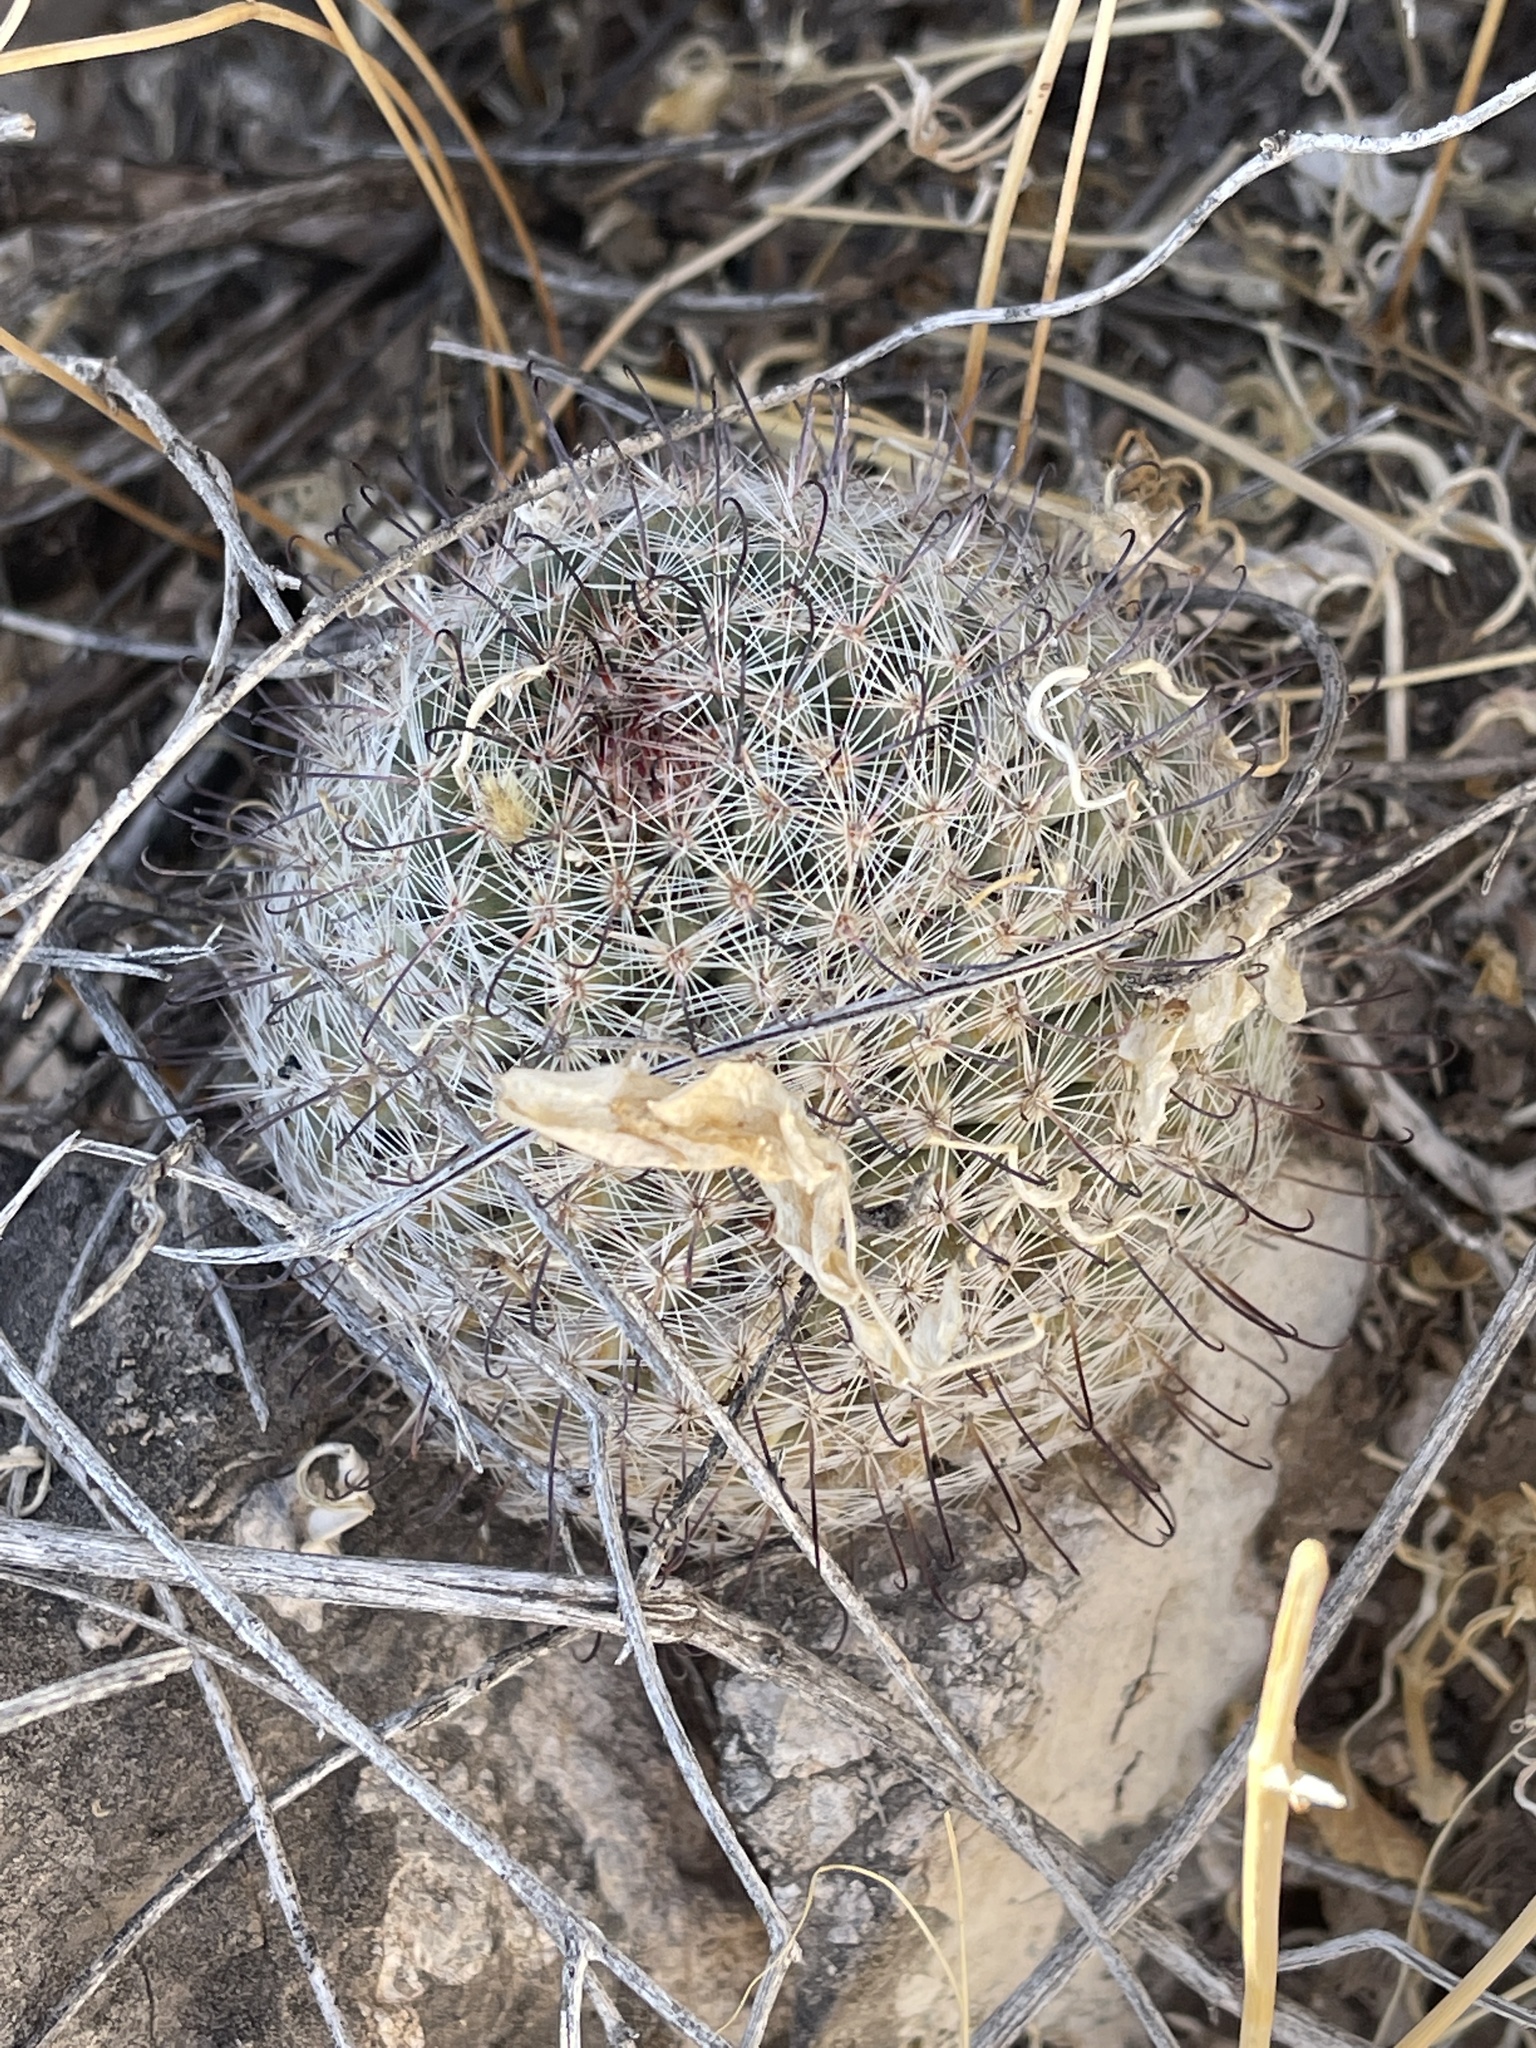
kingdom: Plantae
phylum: Tracheophyta
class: Magnoliopsida
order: Caryophyllales
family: Cactaceae
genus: Cochemiea
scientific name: Cochemiea grahamii
